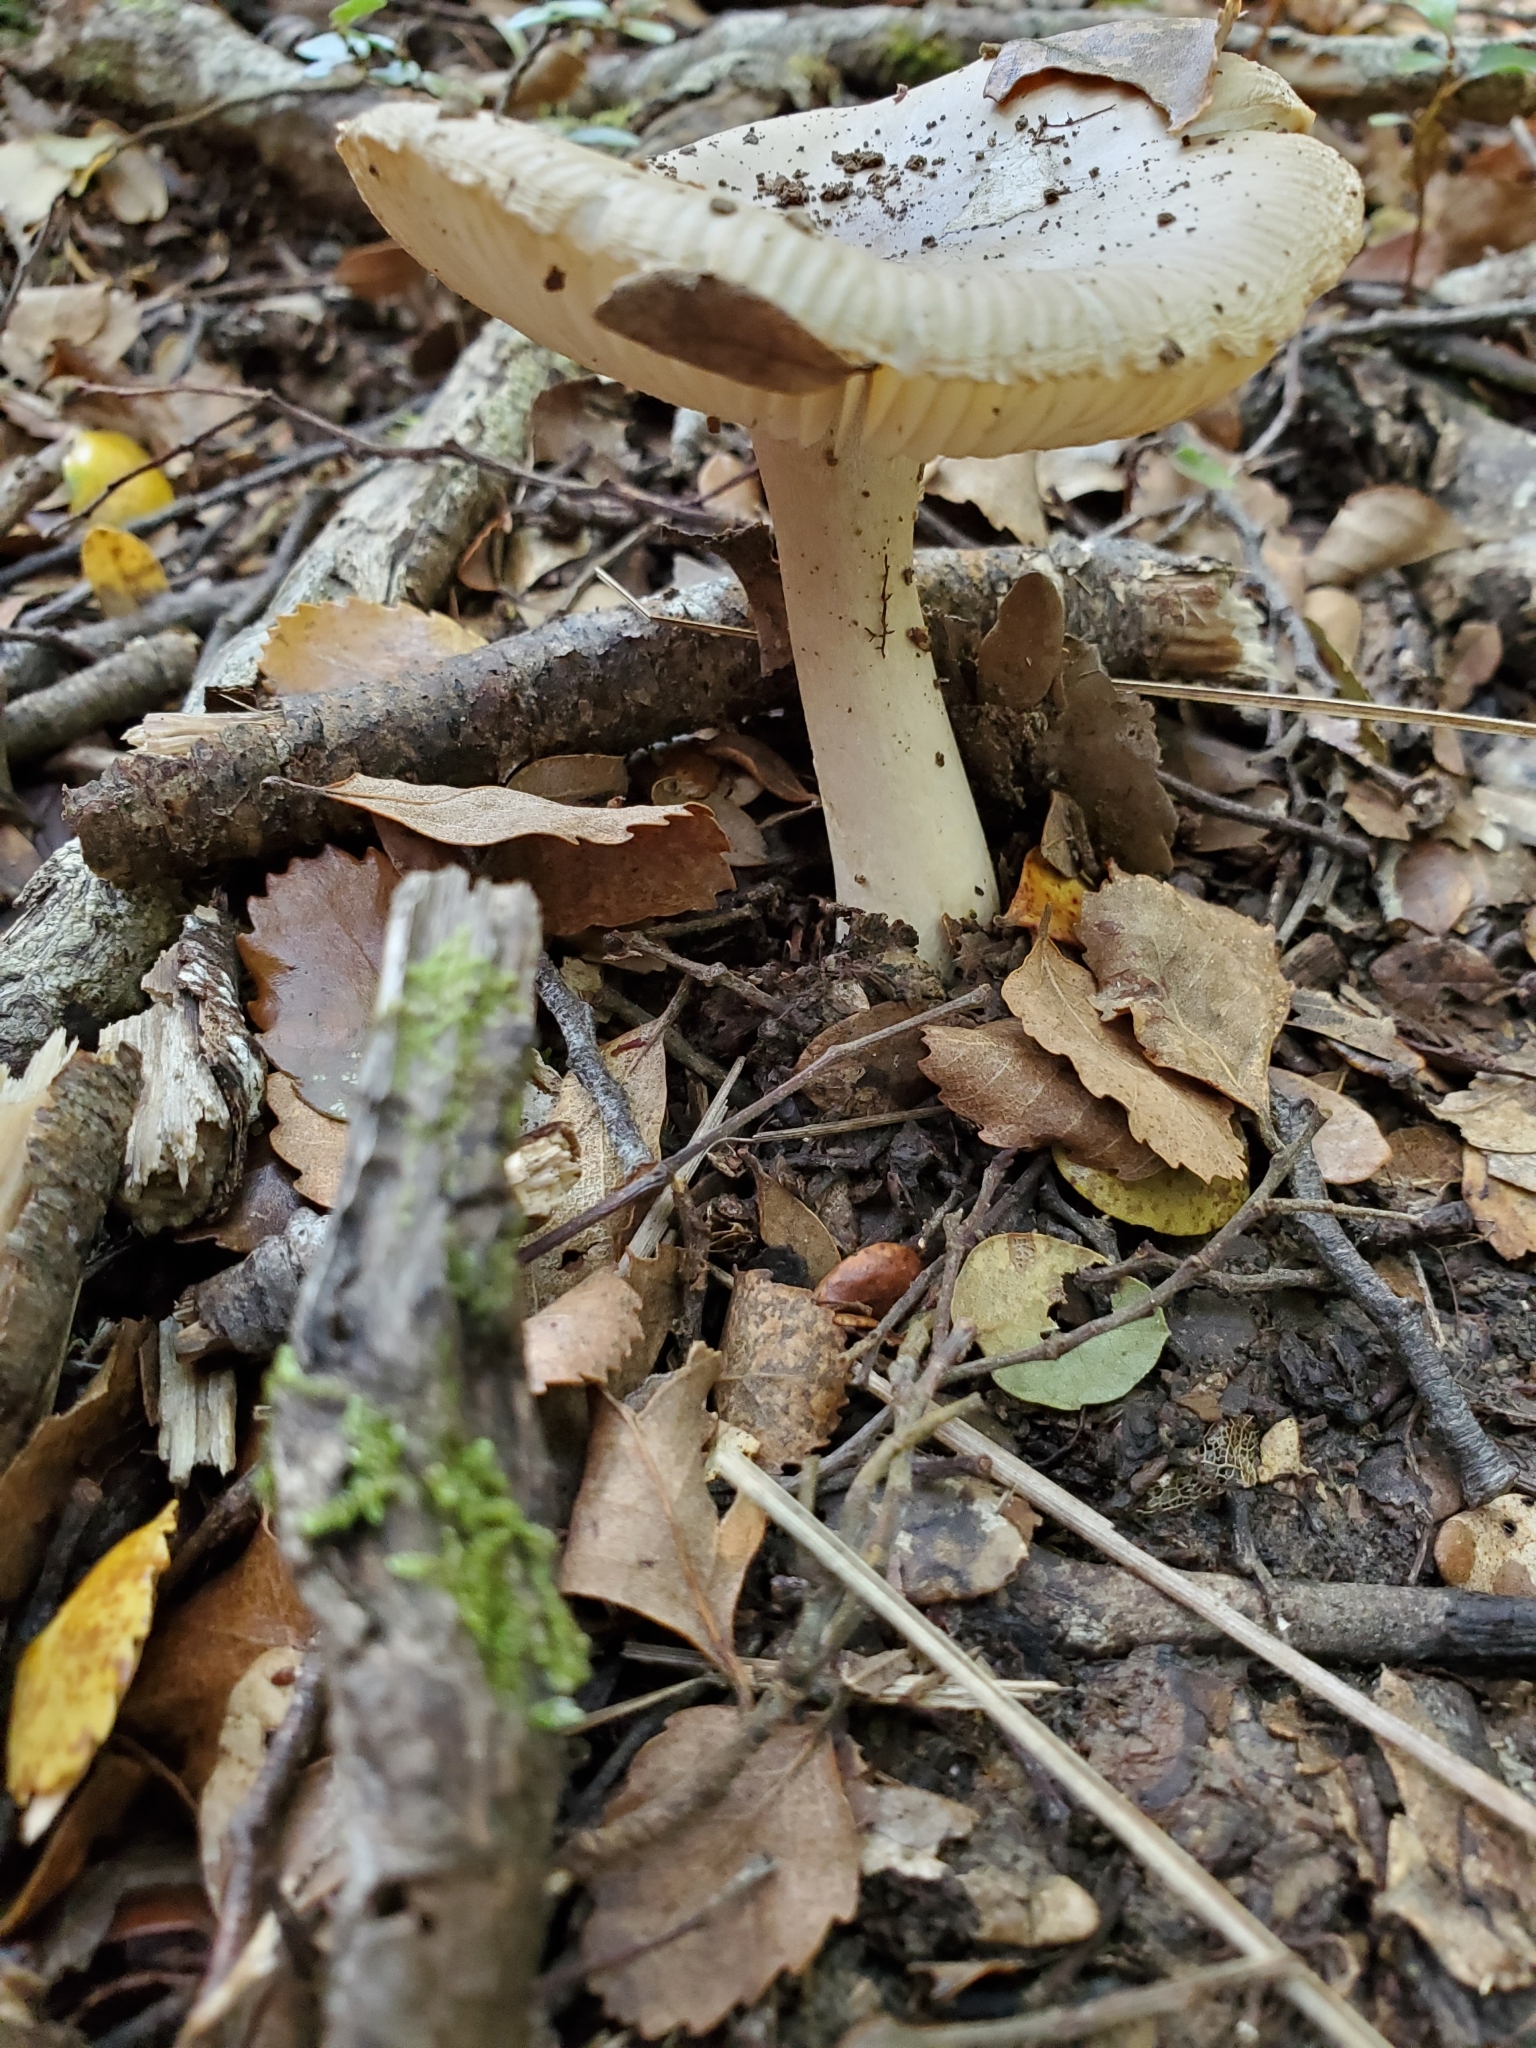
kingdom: Fungi
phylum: Basidiomycota
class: Agaricomycetes
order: Agaricales
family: Amanitaceae
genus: Amanita
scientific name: Amanita taiepa
